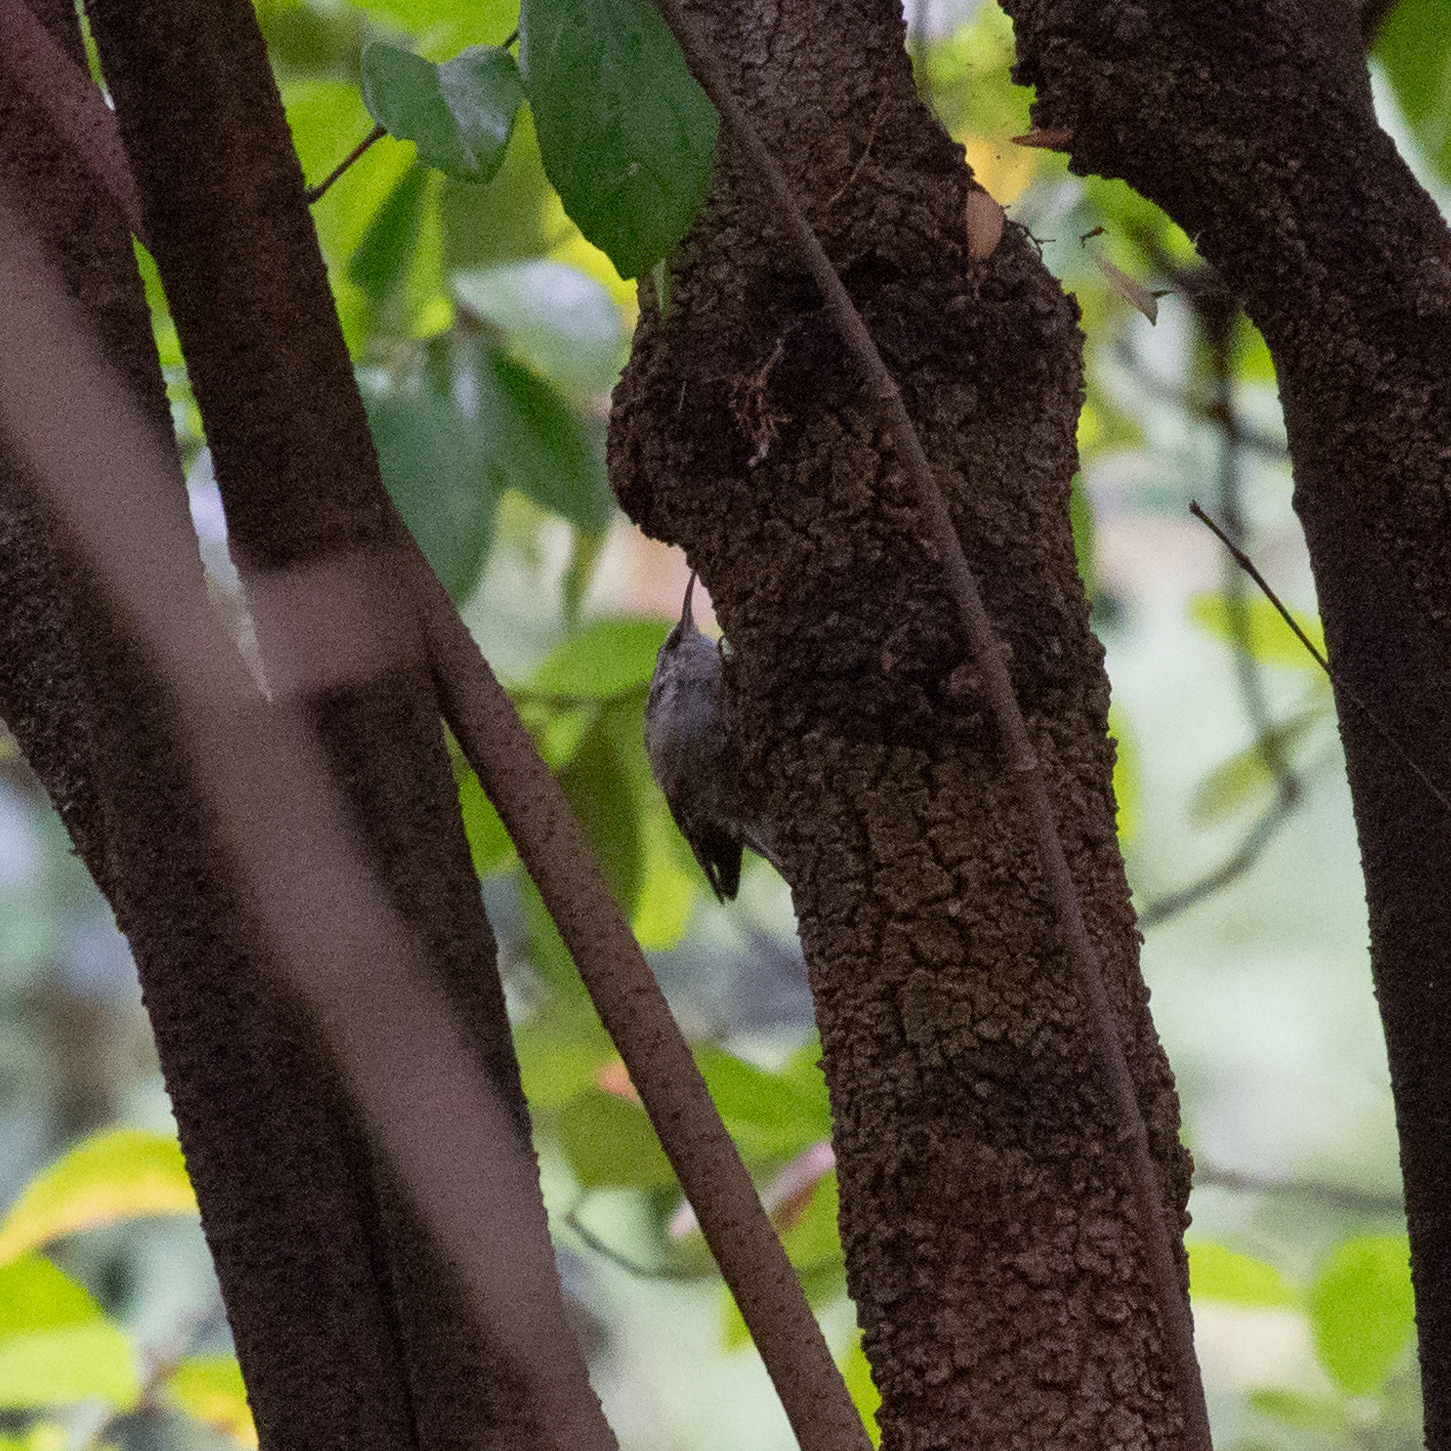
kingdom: Animalia
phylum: Chordata
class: Aves
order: Passeriformes
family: Certhiidae
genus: Certhia
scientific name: Certhia brachydactyla
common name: Short-toed treecreeper
